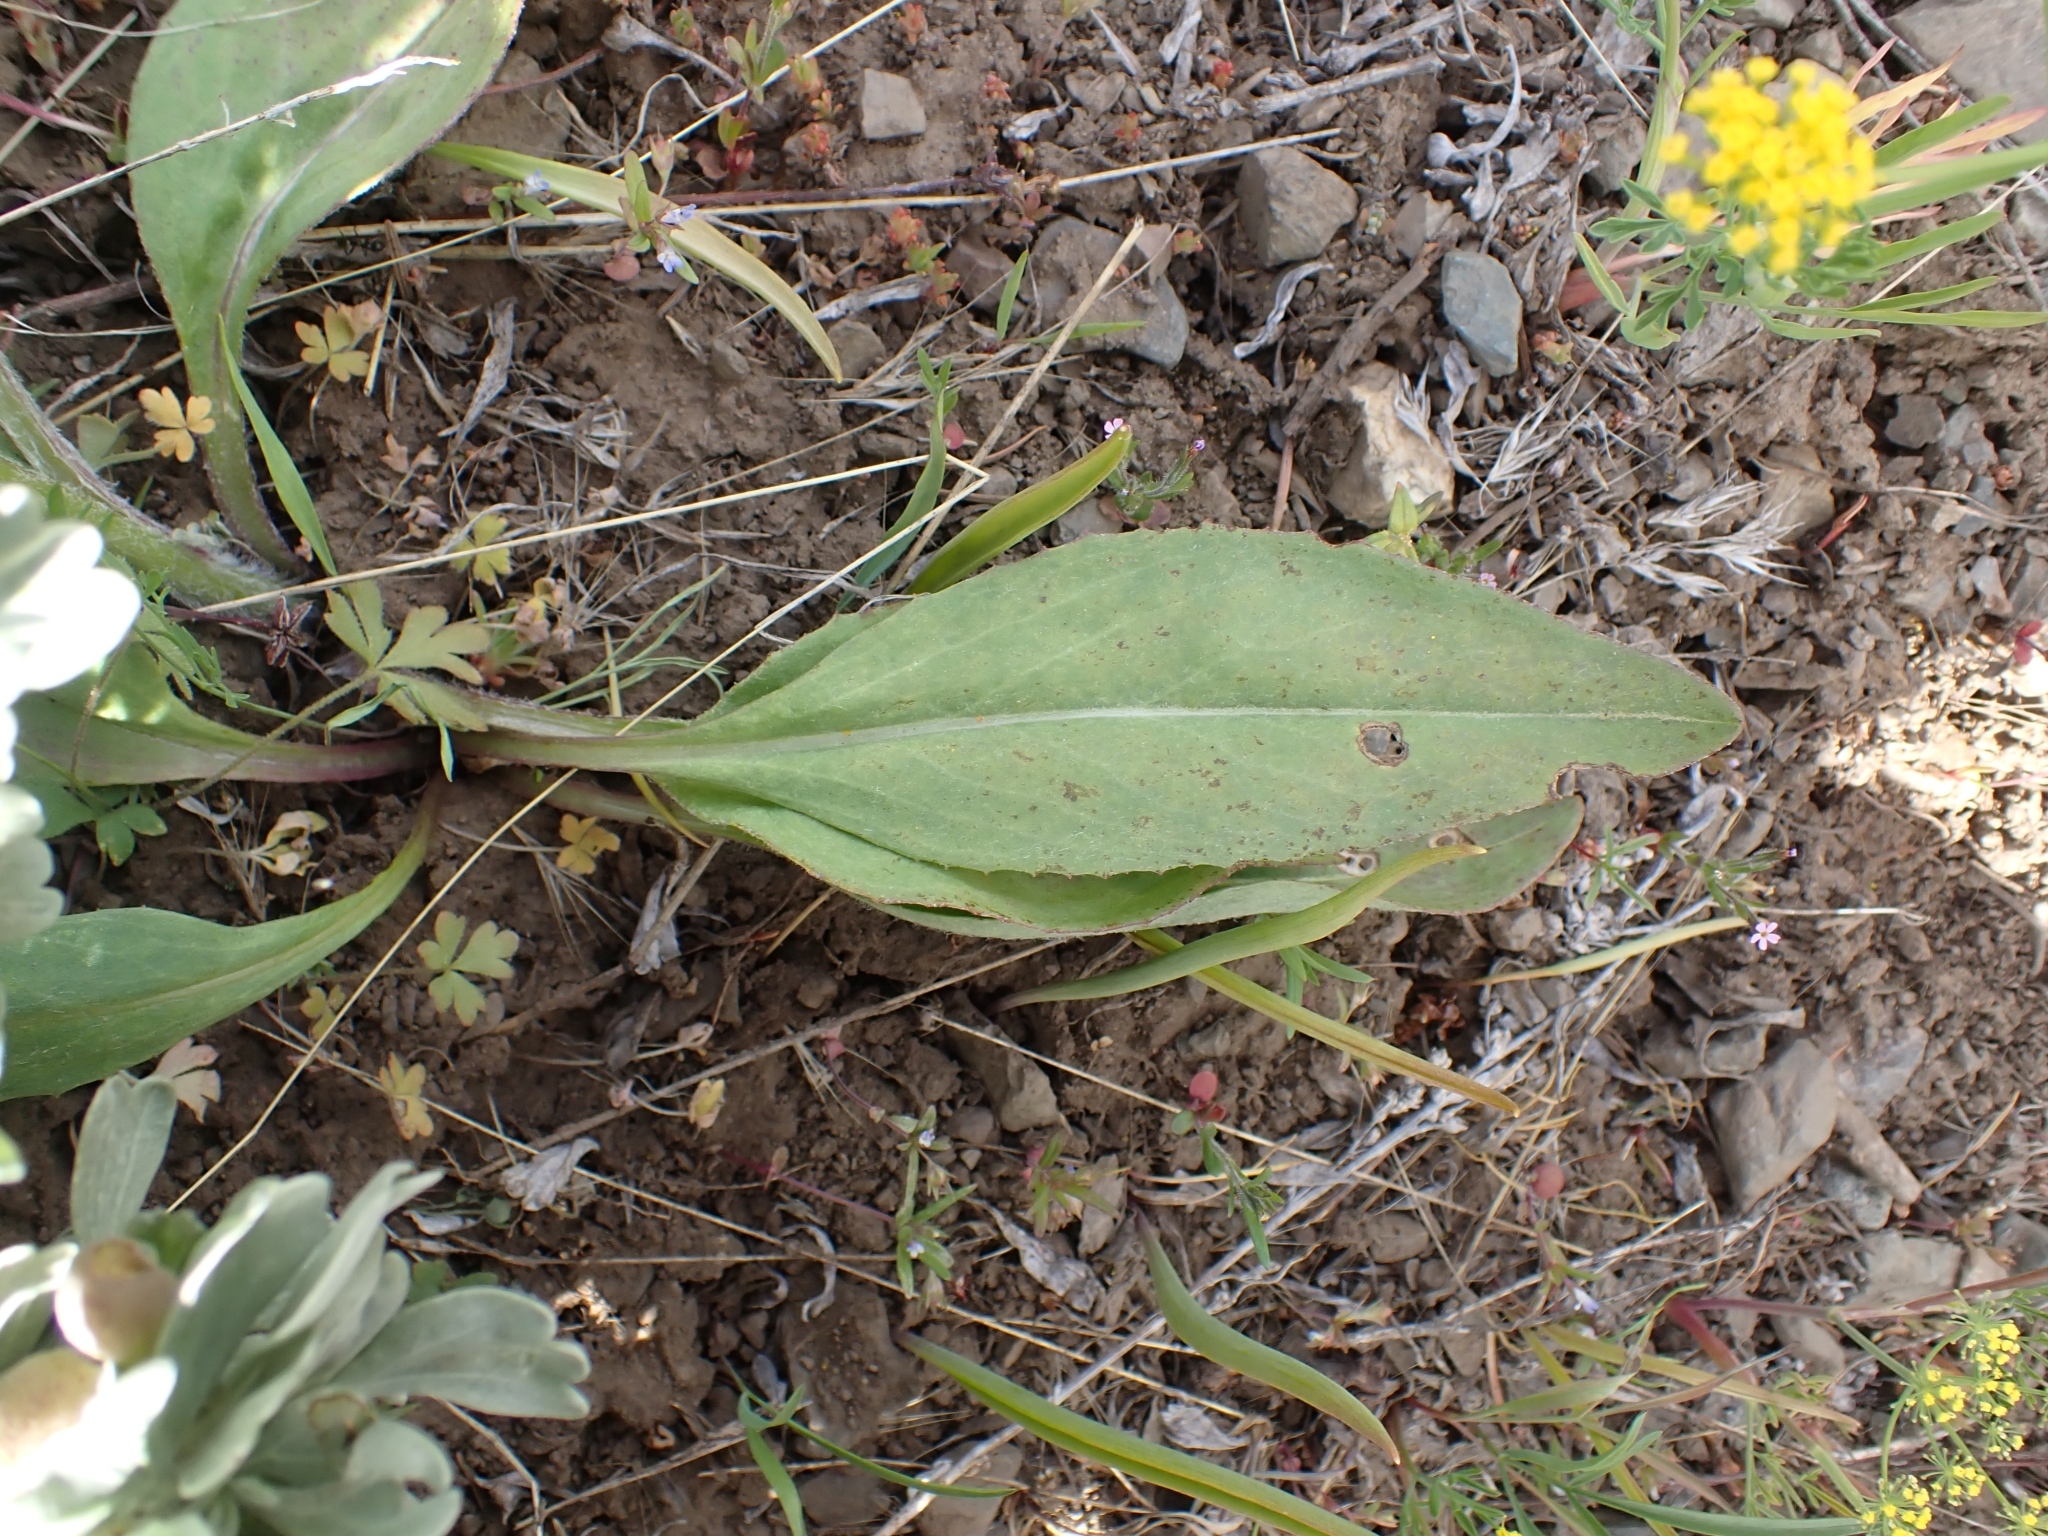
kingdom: Plantae
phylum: Tracheophyta
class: Magnoliopsida
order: Asterales
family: Asteraceae
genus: Senecio
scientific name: Senecio integerrimus
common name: Gaugeplant
